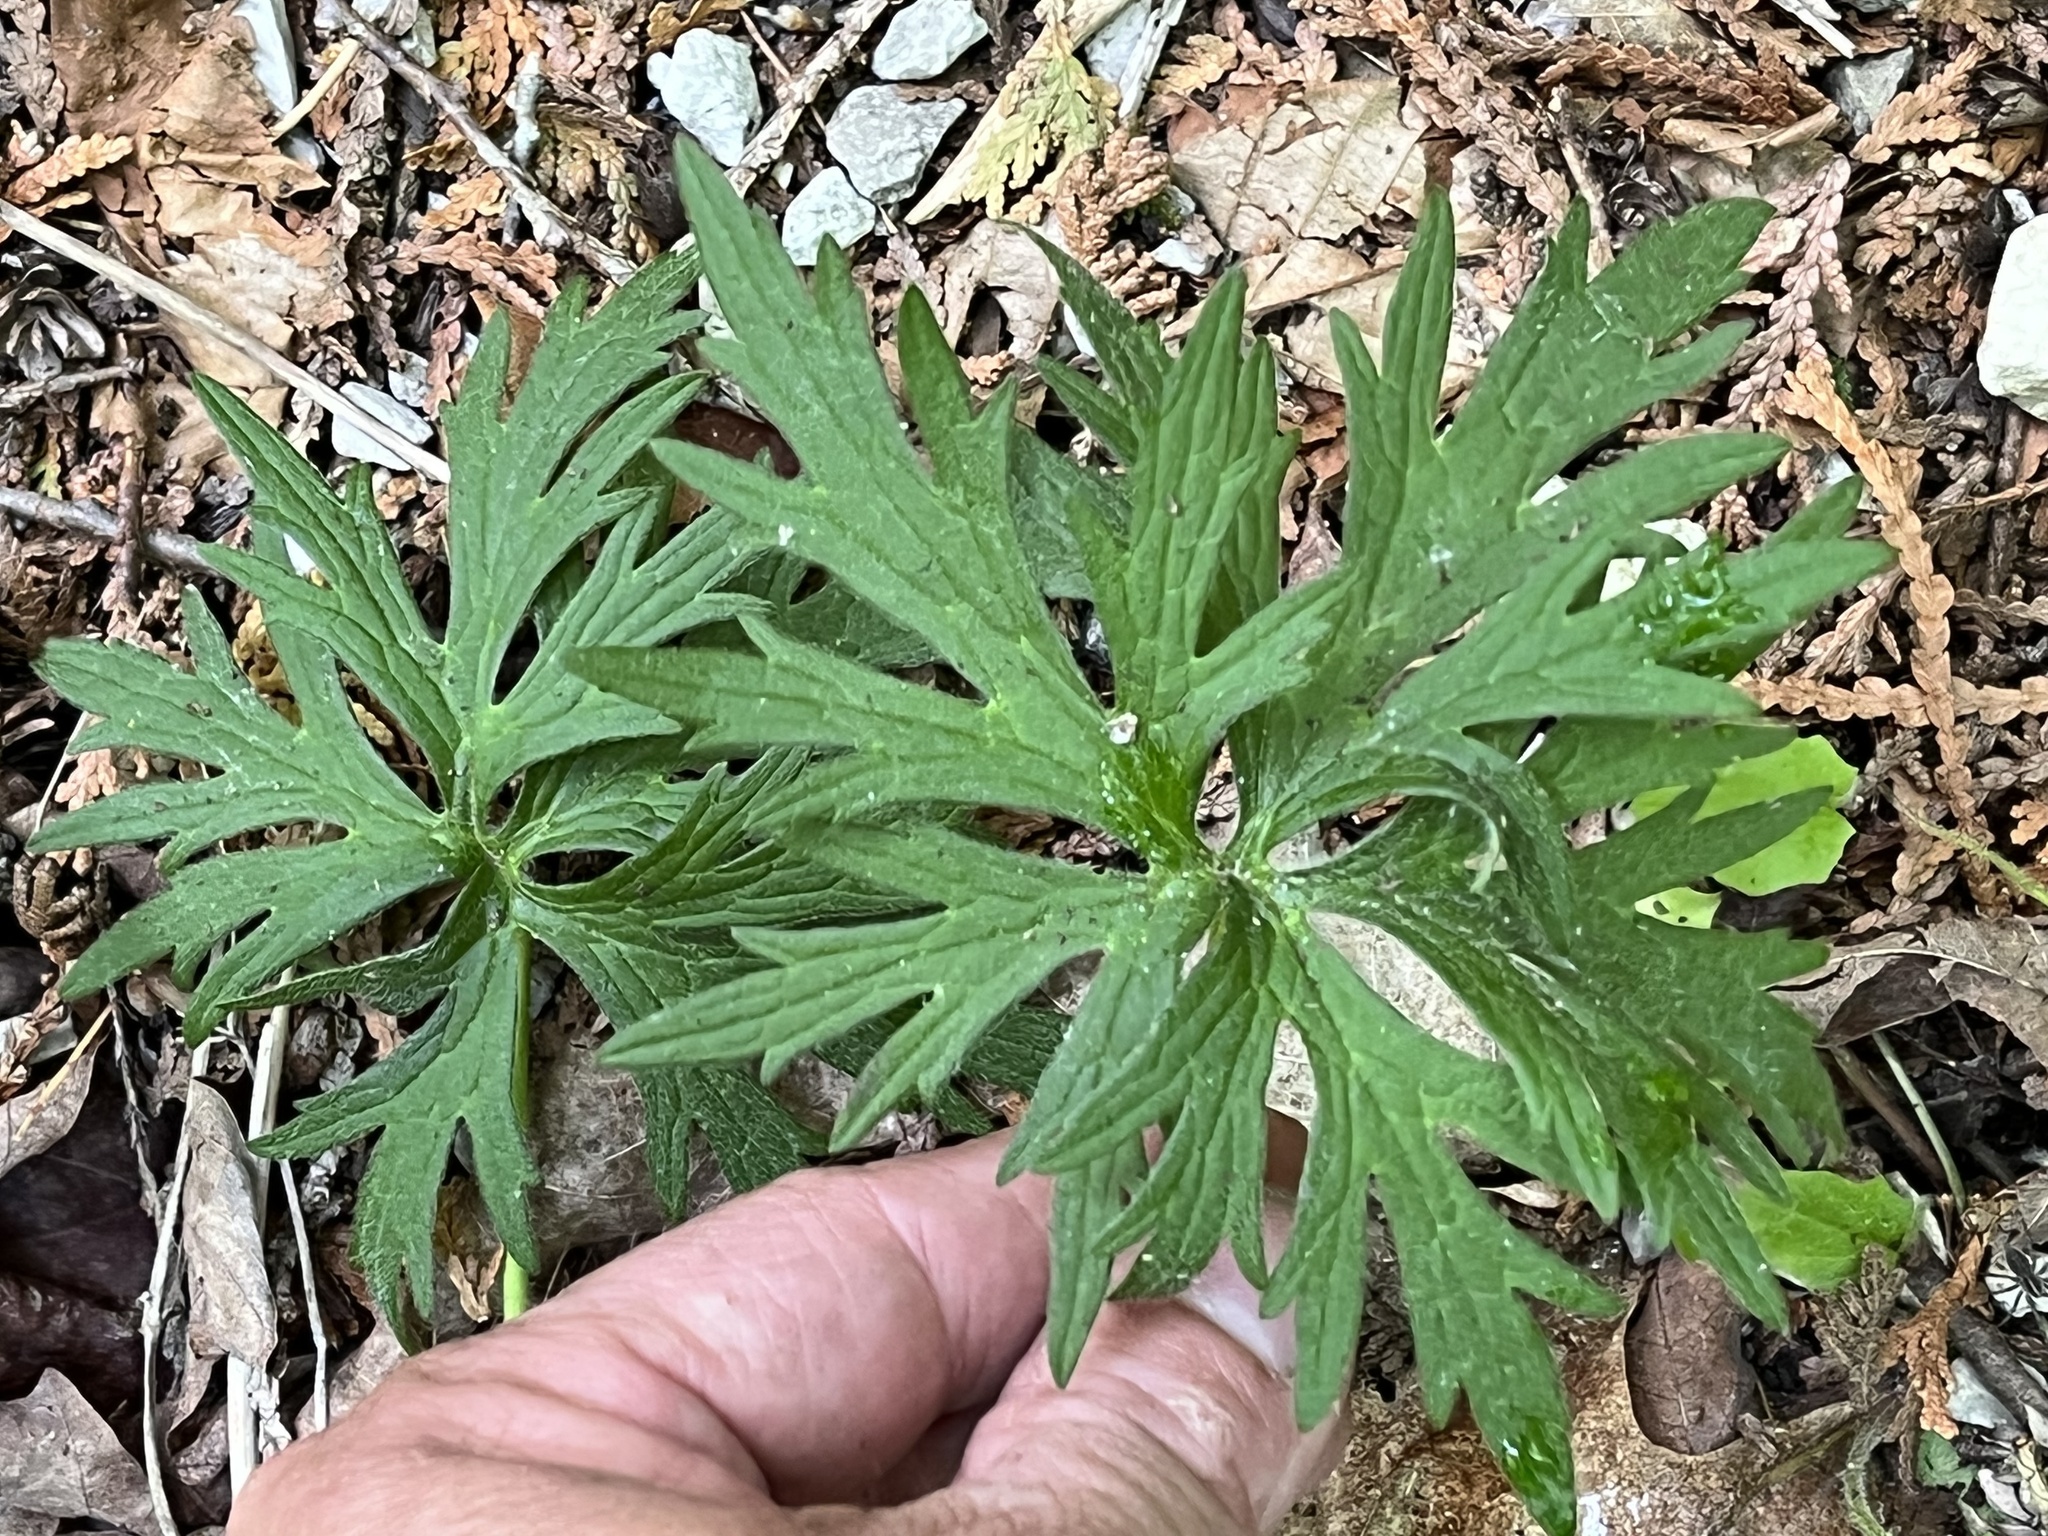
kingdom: Plantae
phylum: Tracheophyta
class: Magnoliopsida
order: Ranunculales
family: Ranunculaceae
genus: Ranunculus
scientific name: Ranunculus acris
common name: Meadow buttercup
